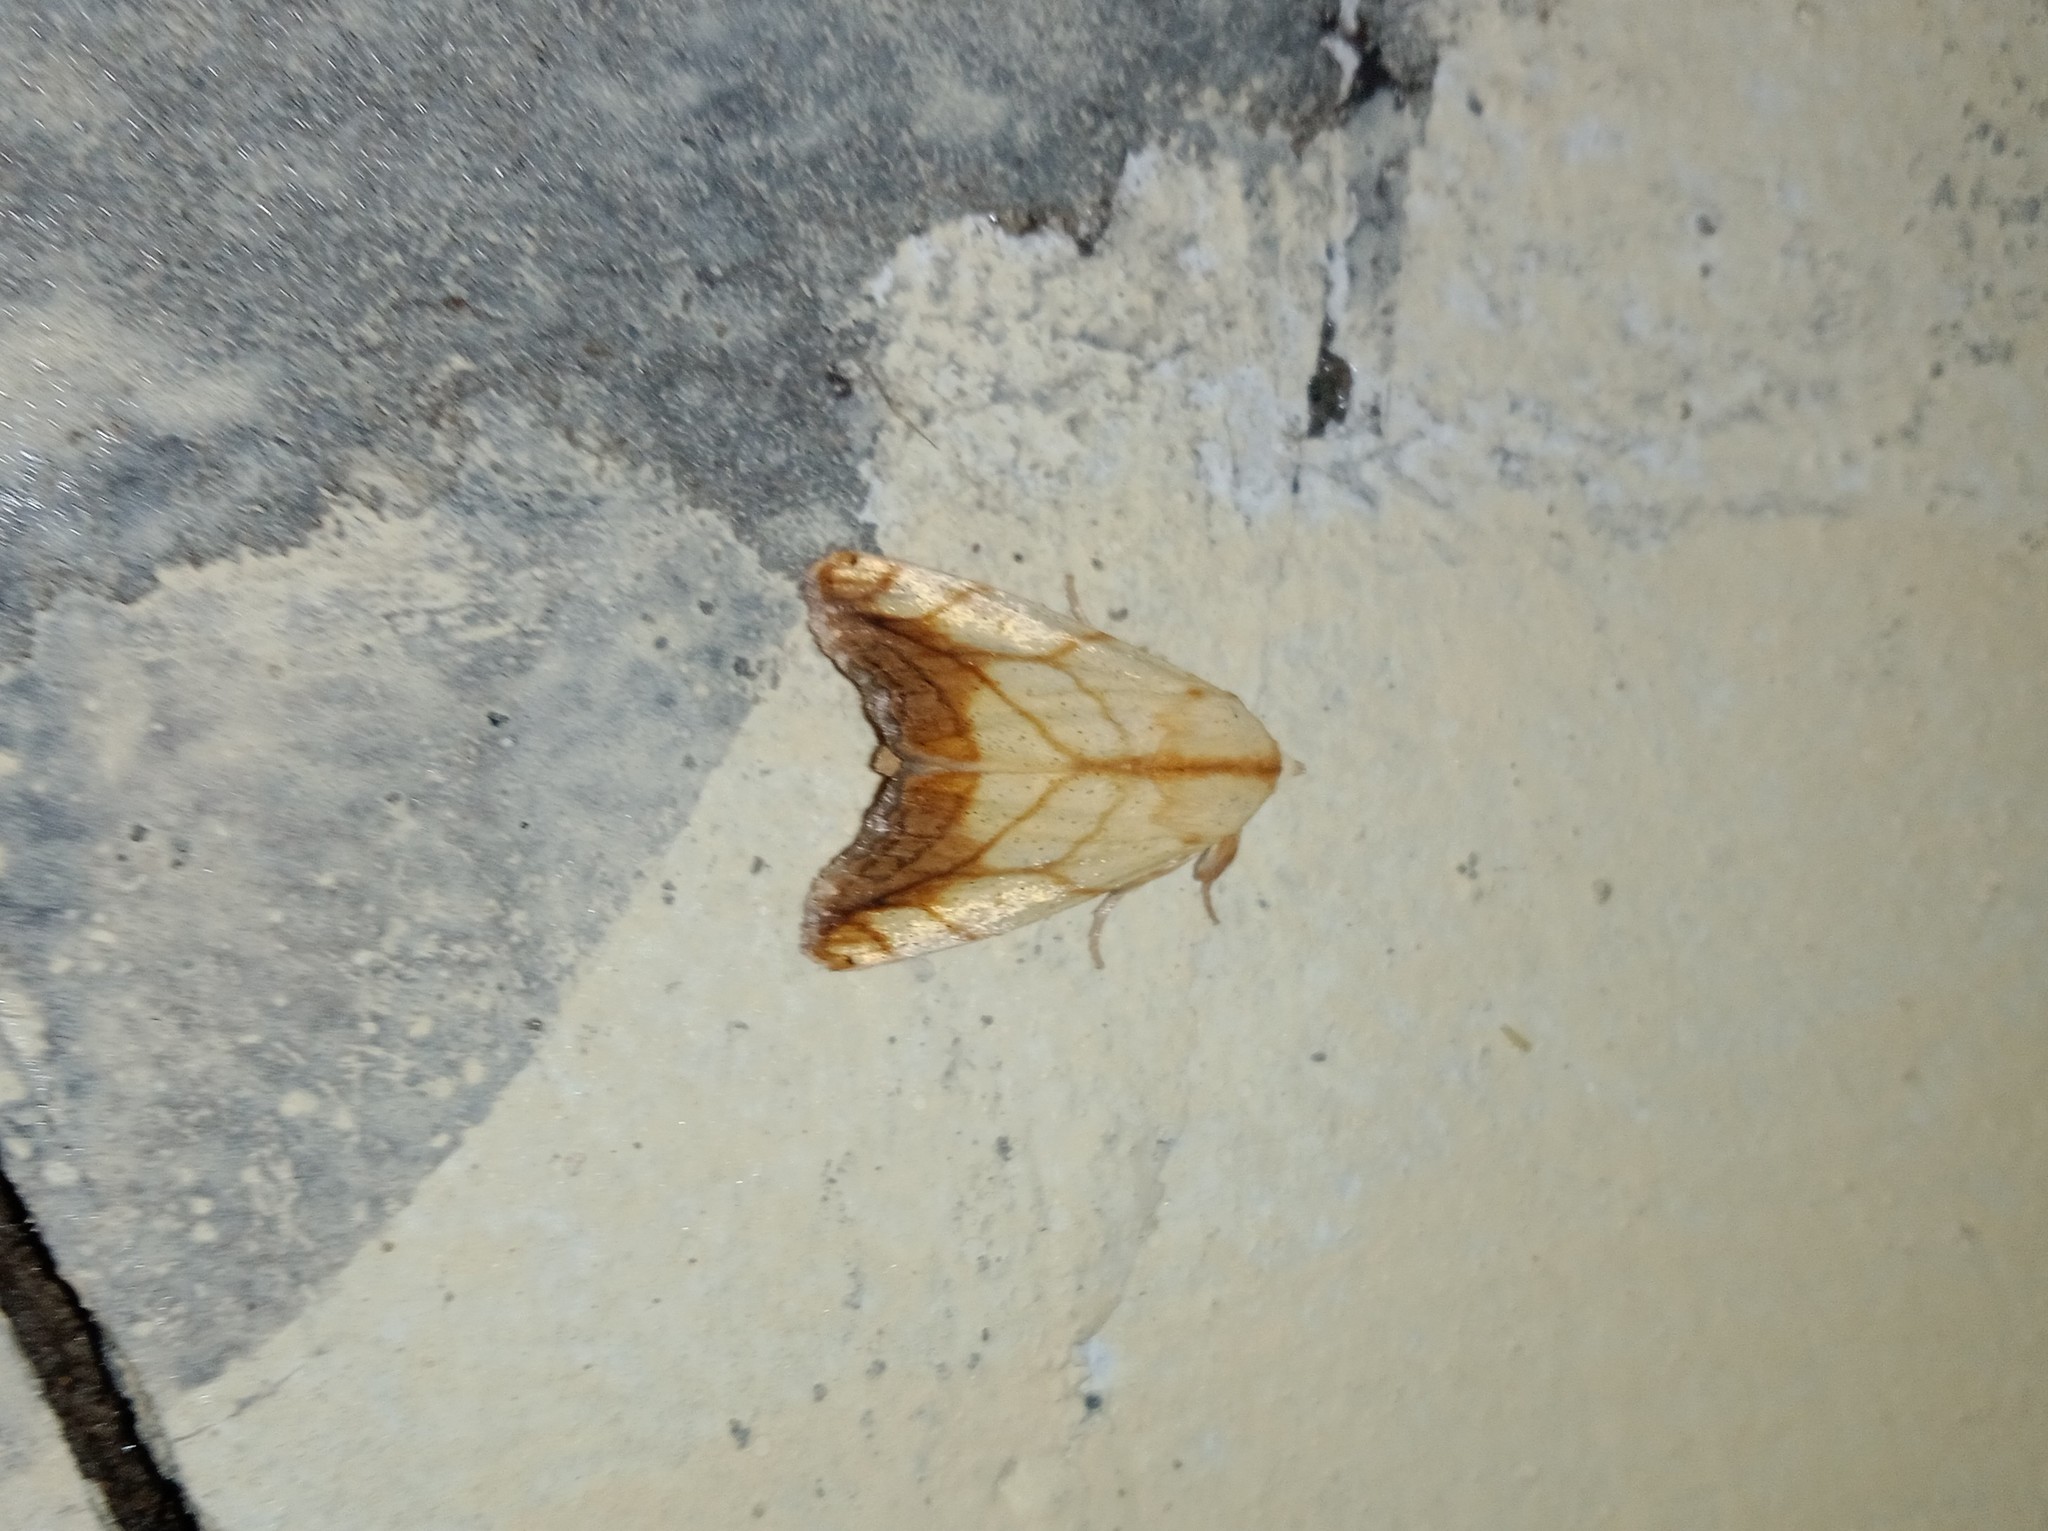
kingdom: Animalia
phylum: Arthropoda
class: Insecta
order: Lepidoptera
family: Nolidae
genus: Xanthodes
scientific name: Xanthodes transversa
